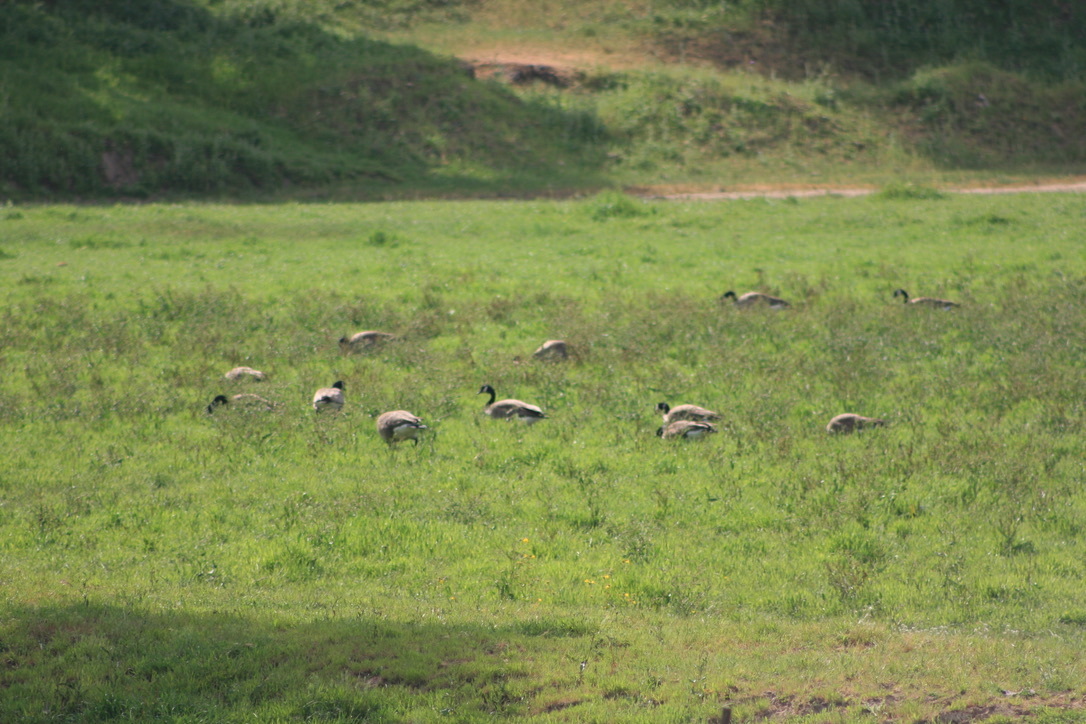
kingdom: Animalia
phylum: Chordata
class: Aves
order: Anseriformes
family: Anatidae
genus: Branta
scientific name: Branta canadensis
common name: Canada goose
